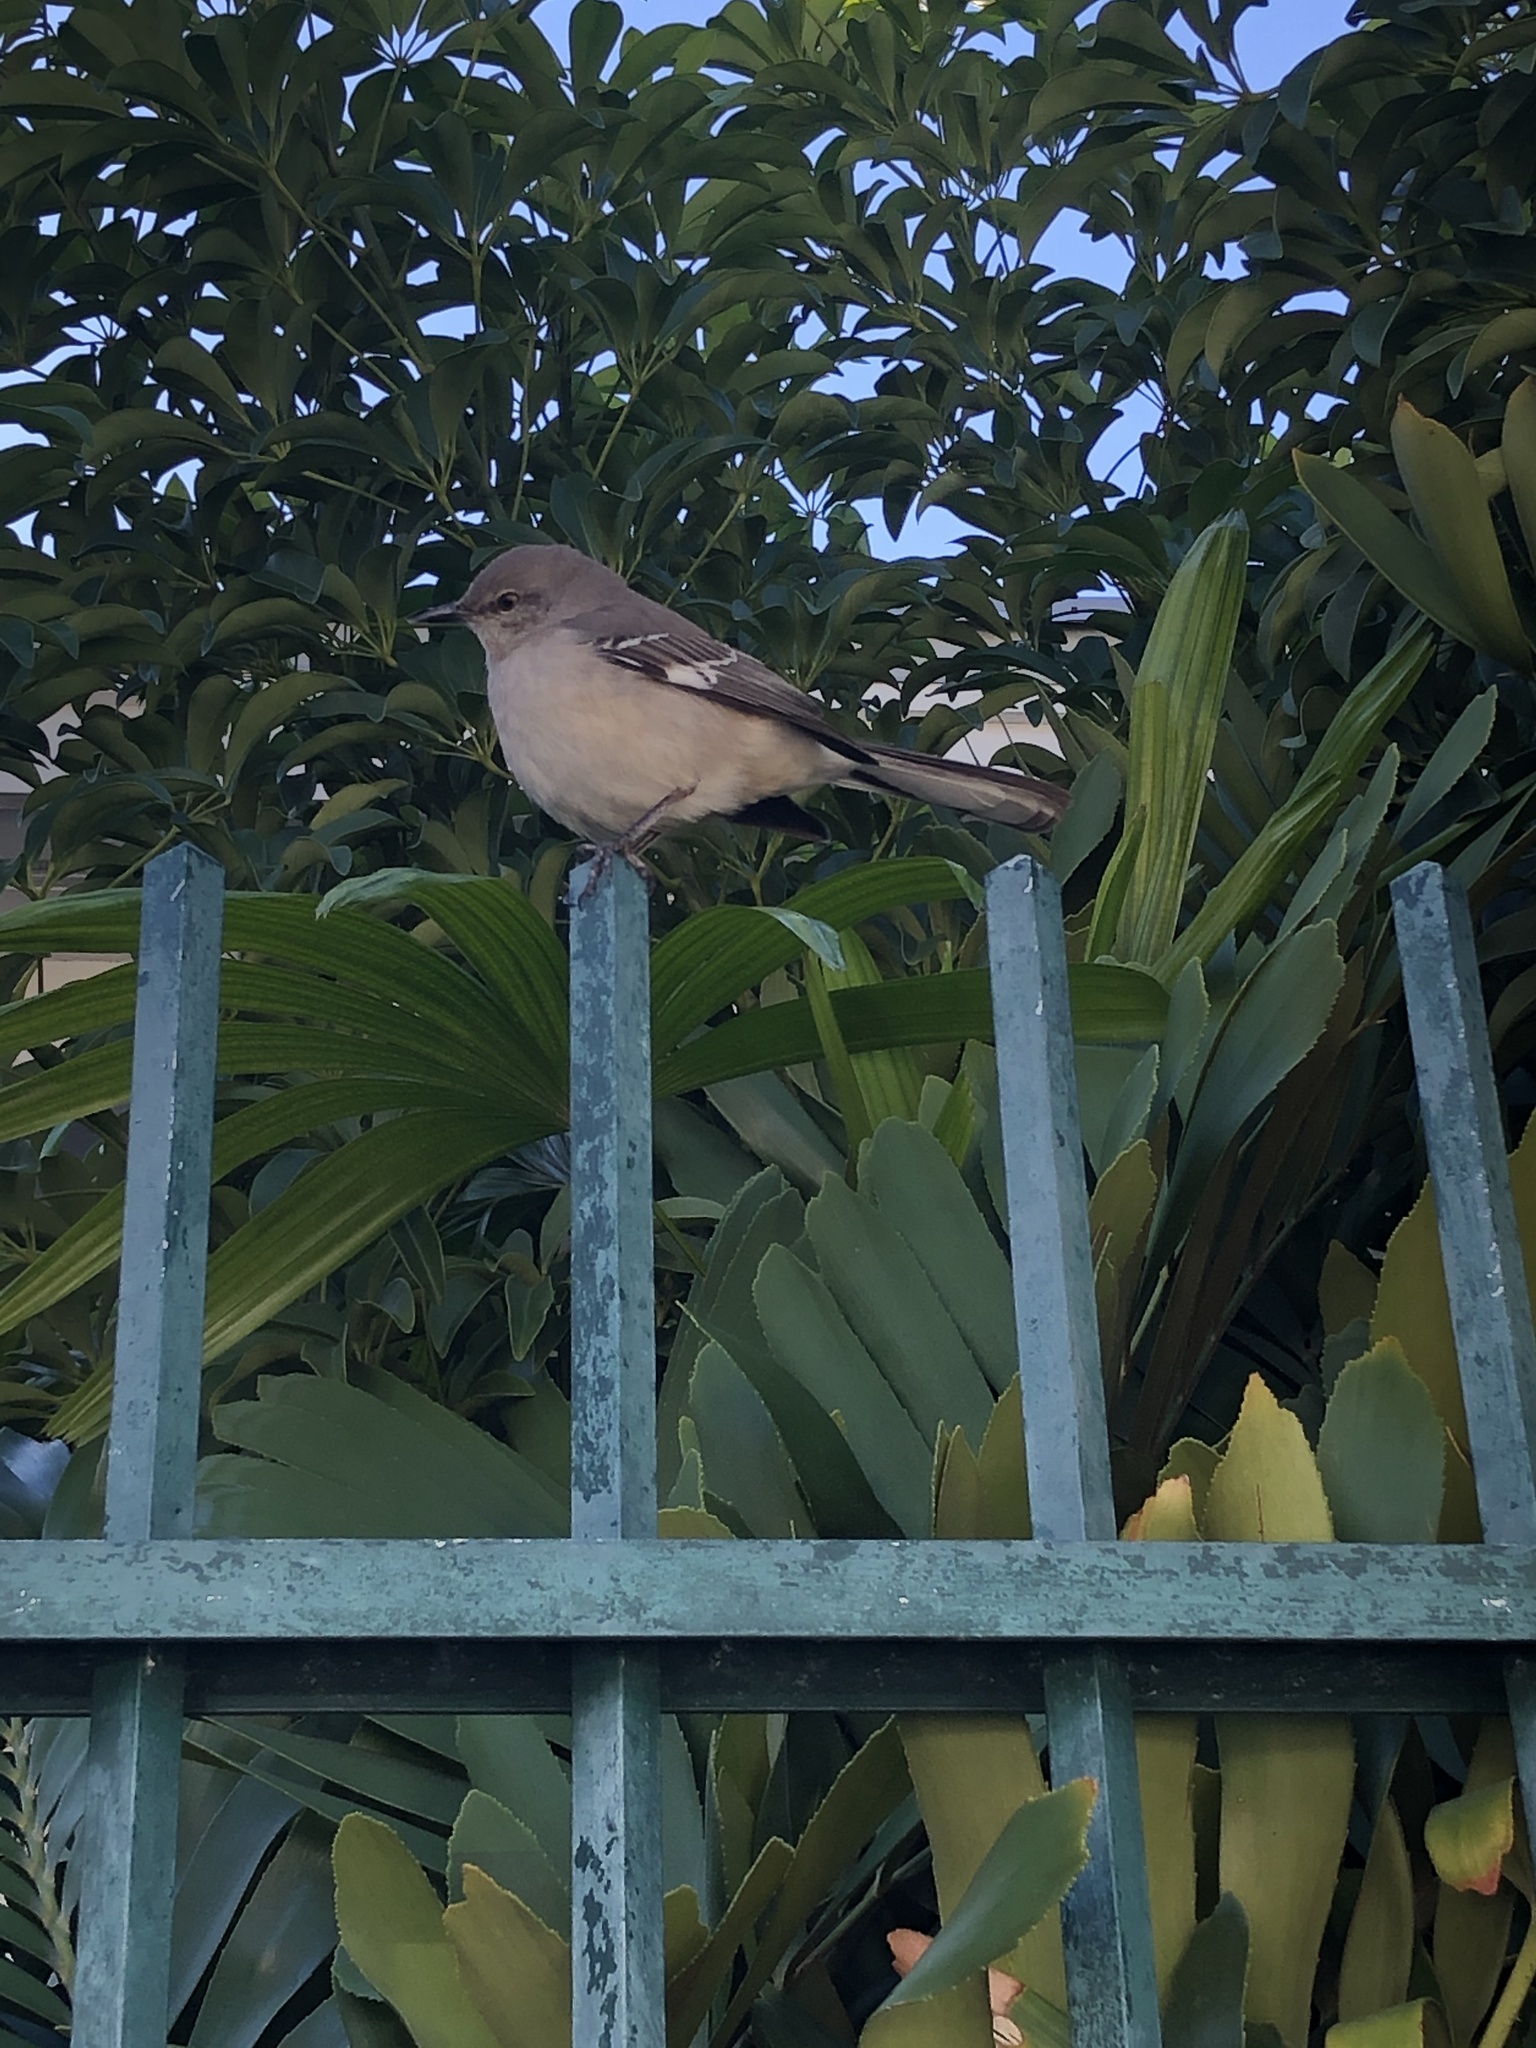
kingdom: Animalia
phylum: Chordata
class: Aves
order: Passeriformes
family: Mimidae
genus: Mimus
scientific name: Mimus polyglottos
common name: Northern mockingbird
